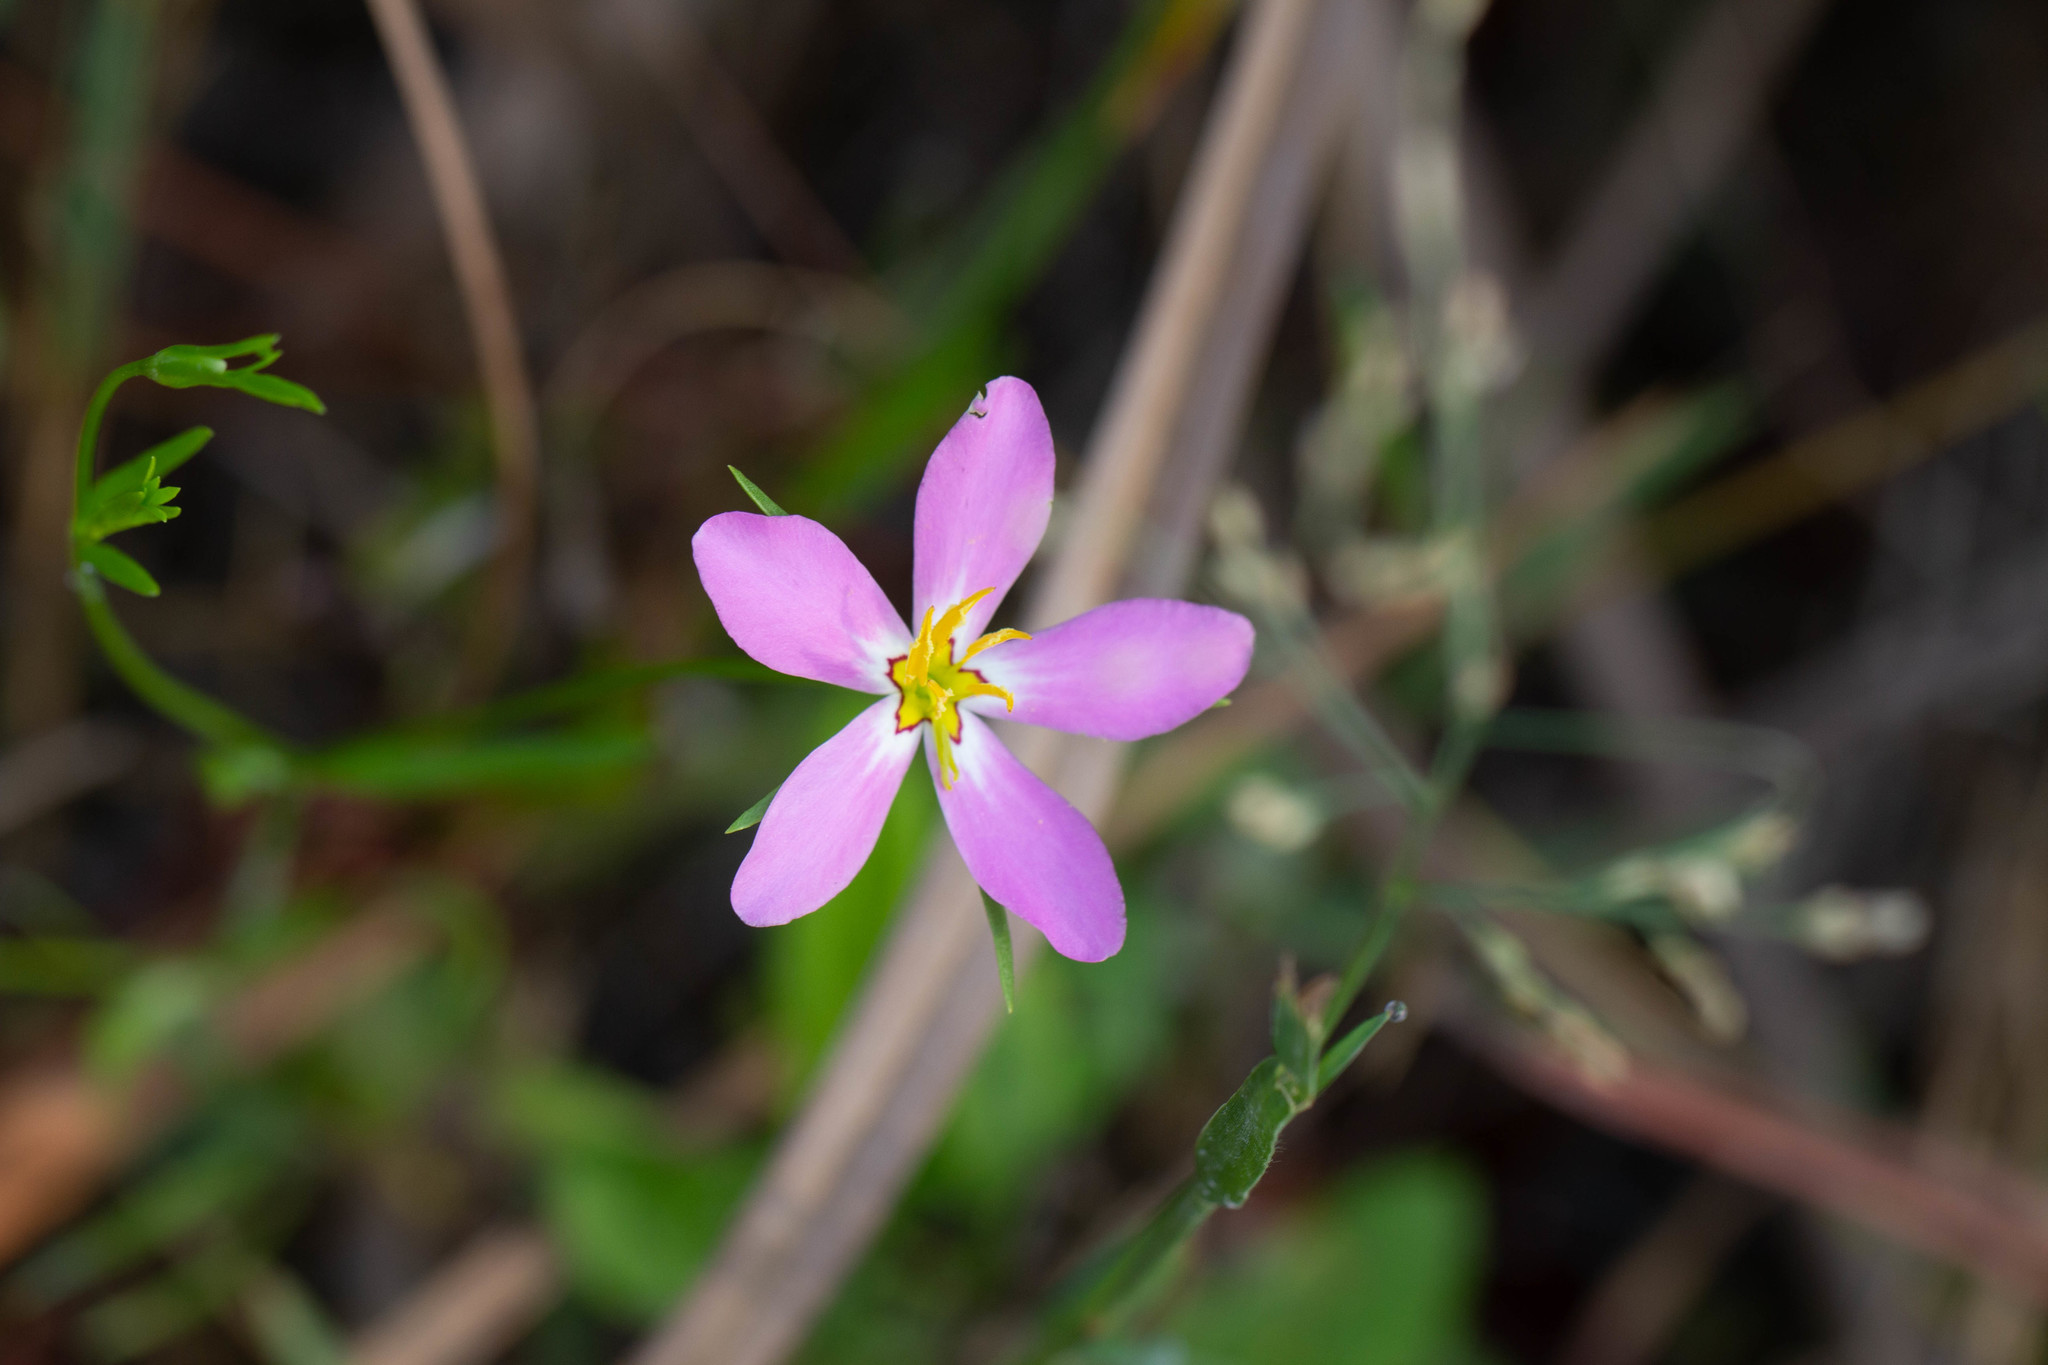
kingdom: Plantae
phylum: Tracheophyta
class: Magnoliopsida
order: Gentianales
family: Gentianaceae
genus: Sabatia
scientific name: Sabatia stellaris
